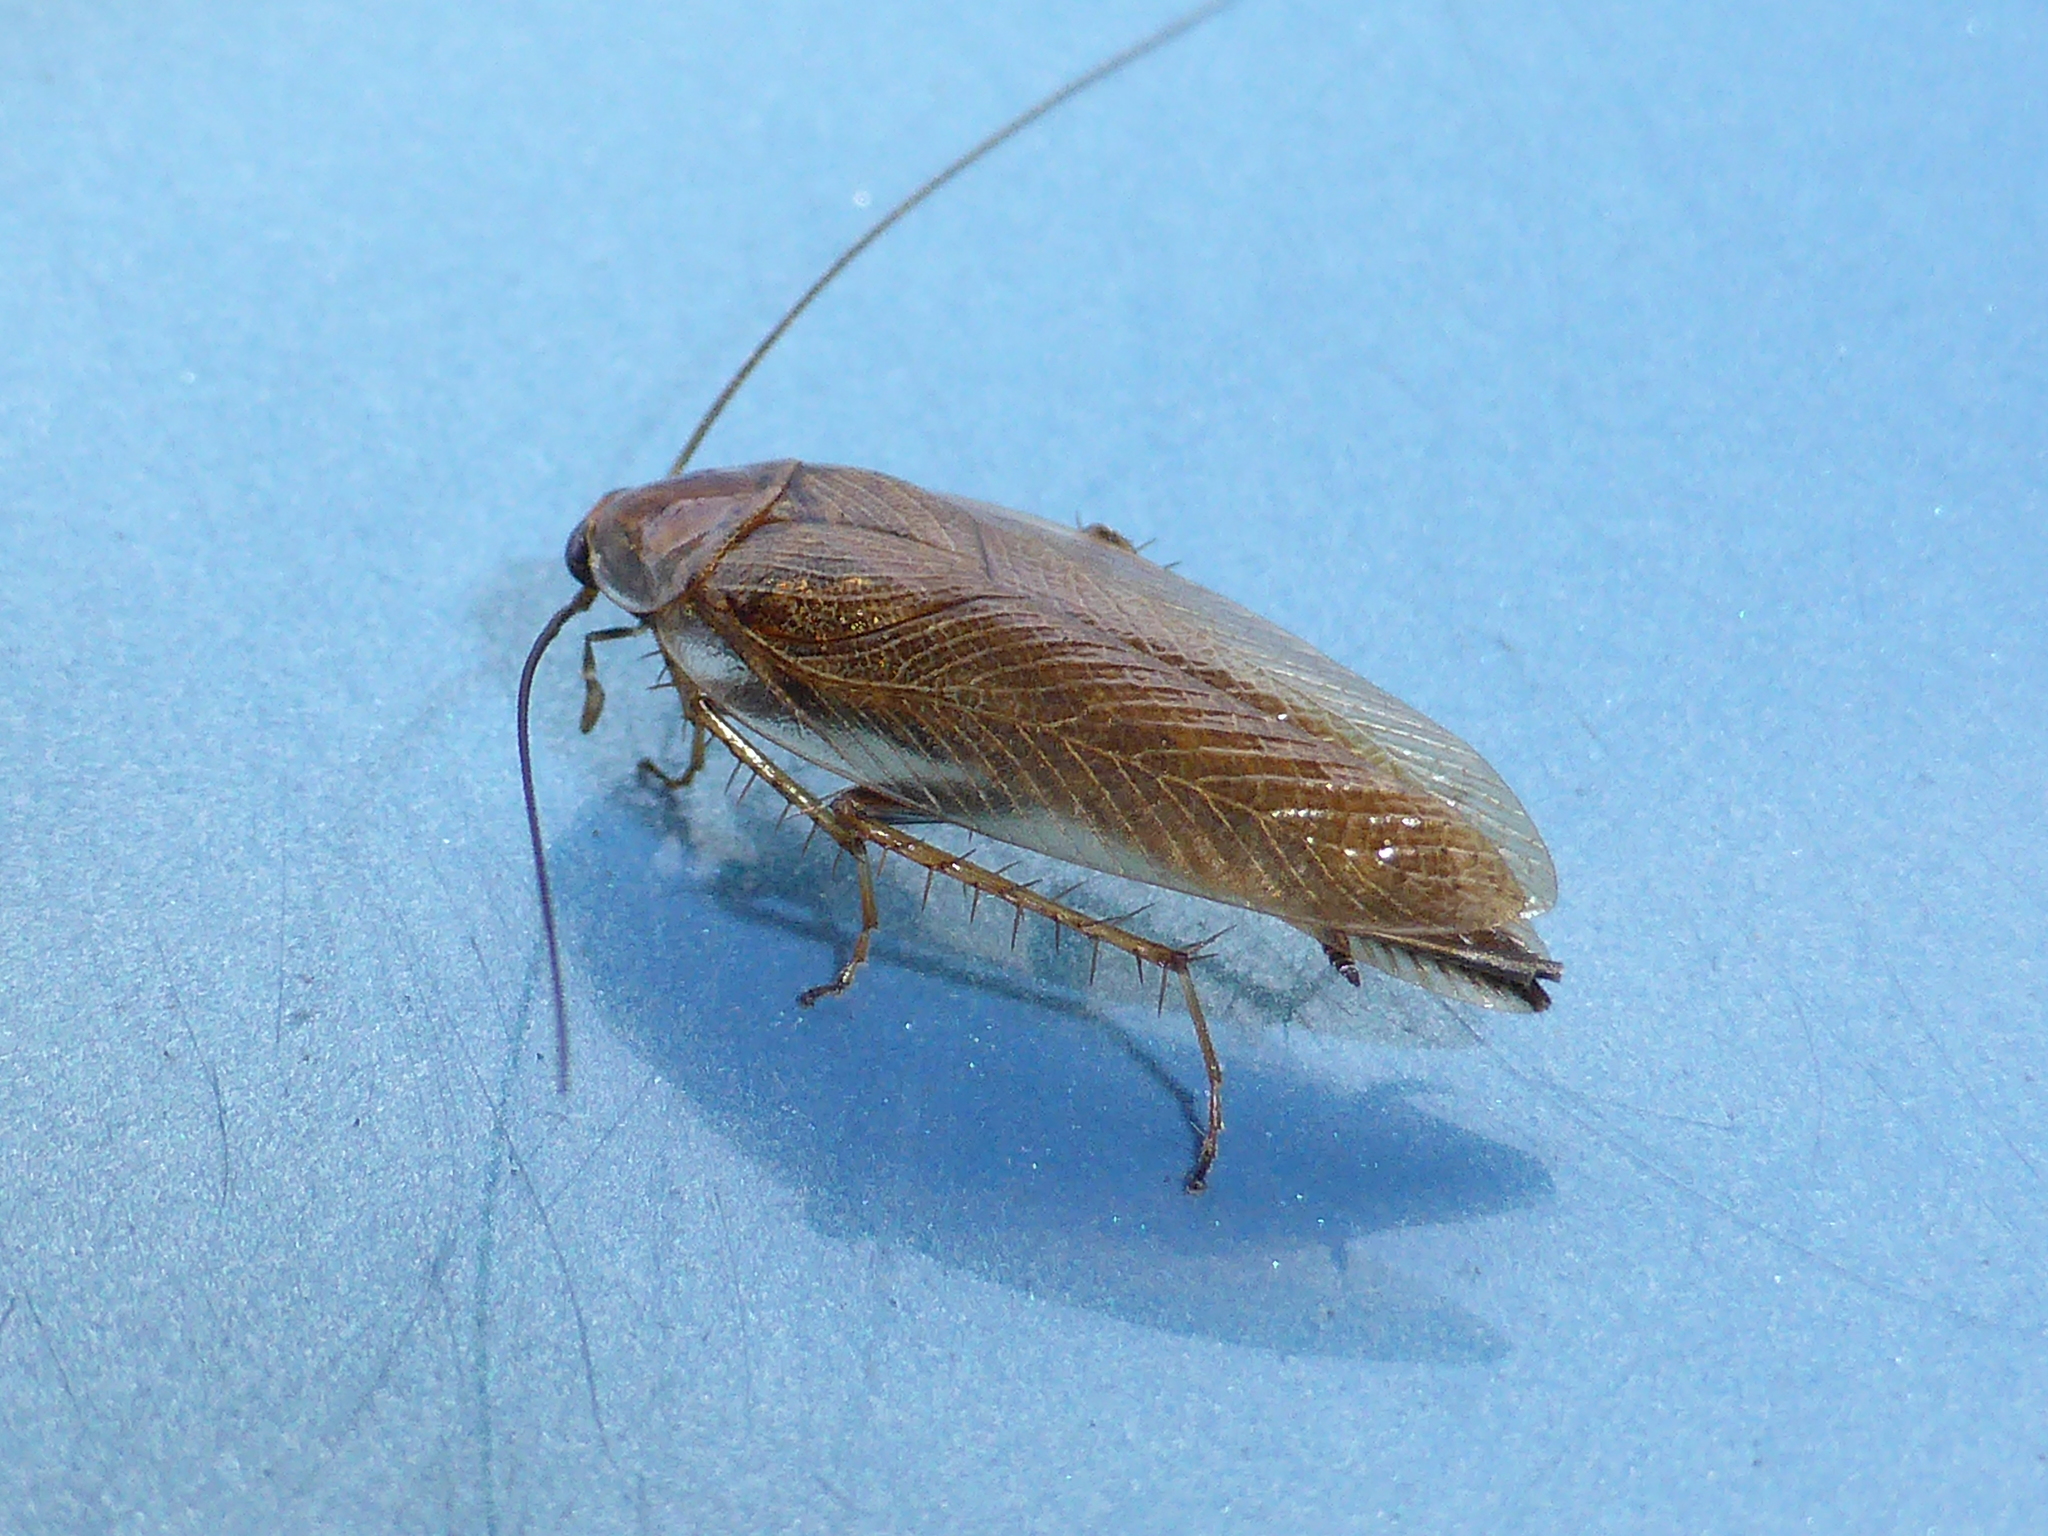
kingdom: Animalia
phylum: Arthropoda
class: Insecta
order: Blattodea
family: Ectobiidae
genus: Ectobius
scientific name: Ectobius vittiventris
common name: Garden cockroach
